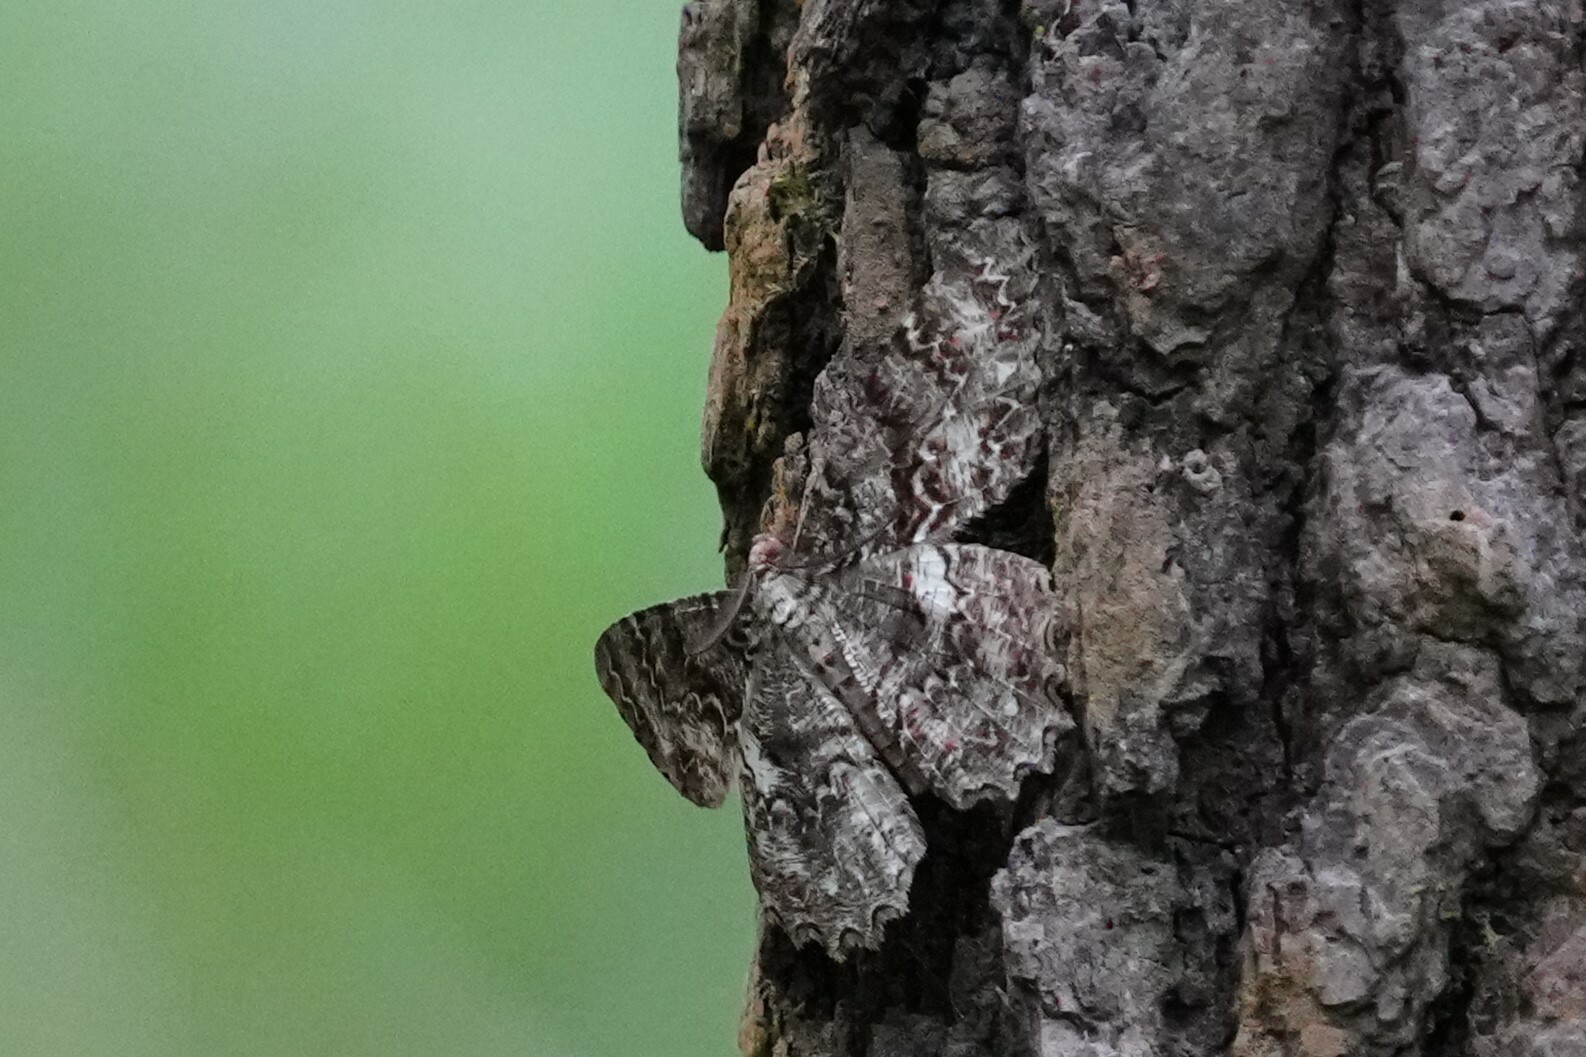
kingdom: Animalia
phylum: Arthropoda
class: Insecta
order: Lepidoptera
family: Geometridae
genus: Epimecis
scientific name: Epimecis hortaria
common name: Tulip-tree beauty
